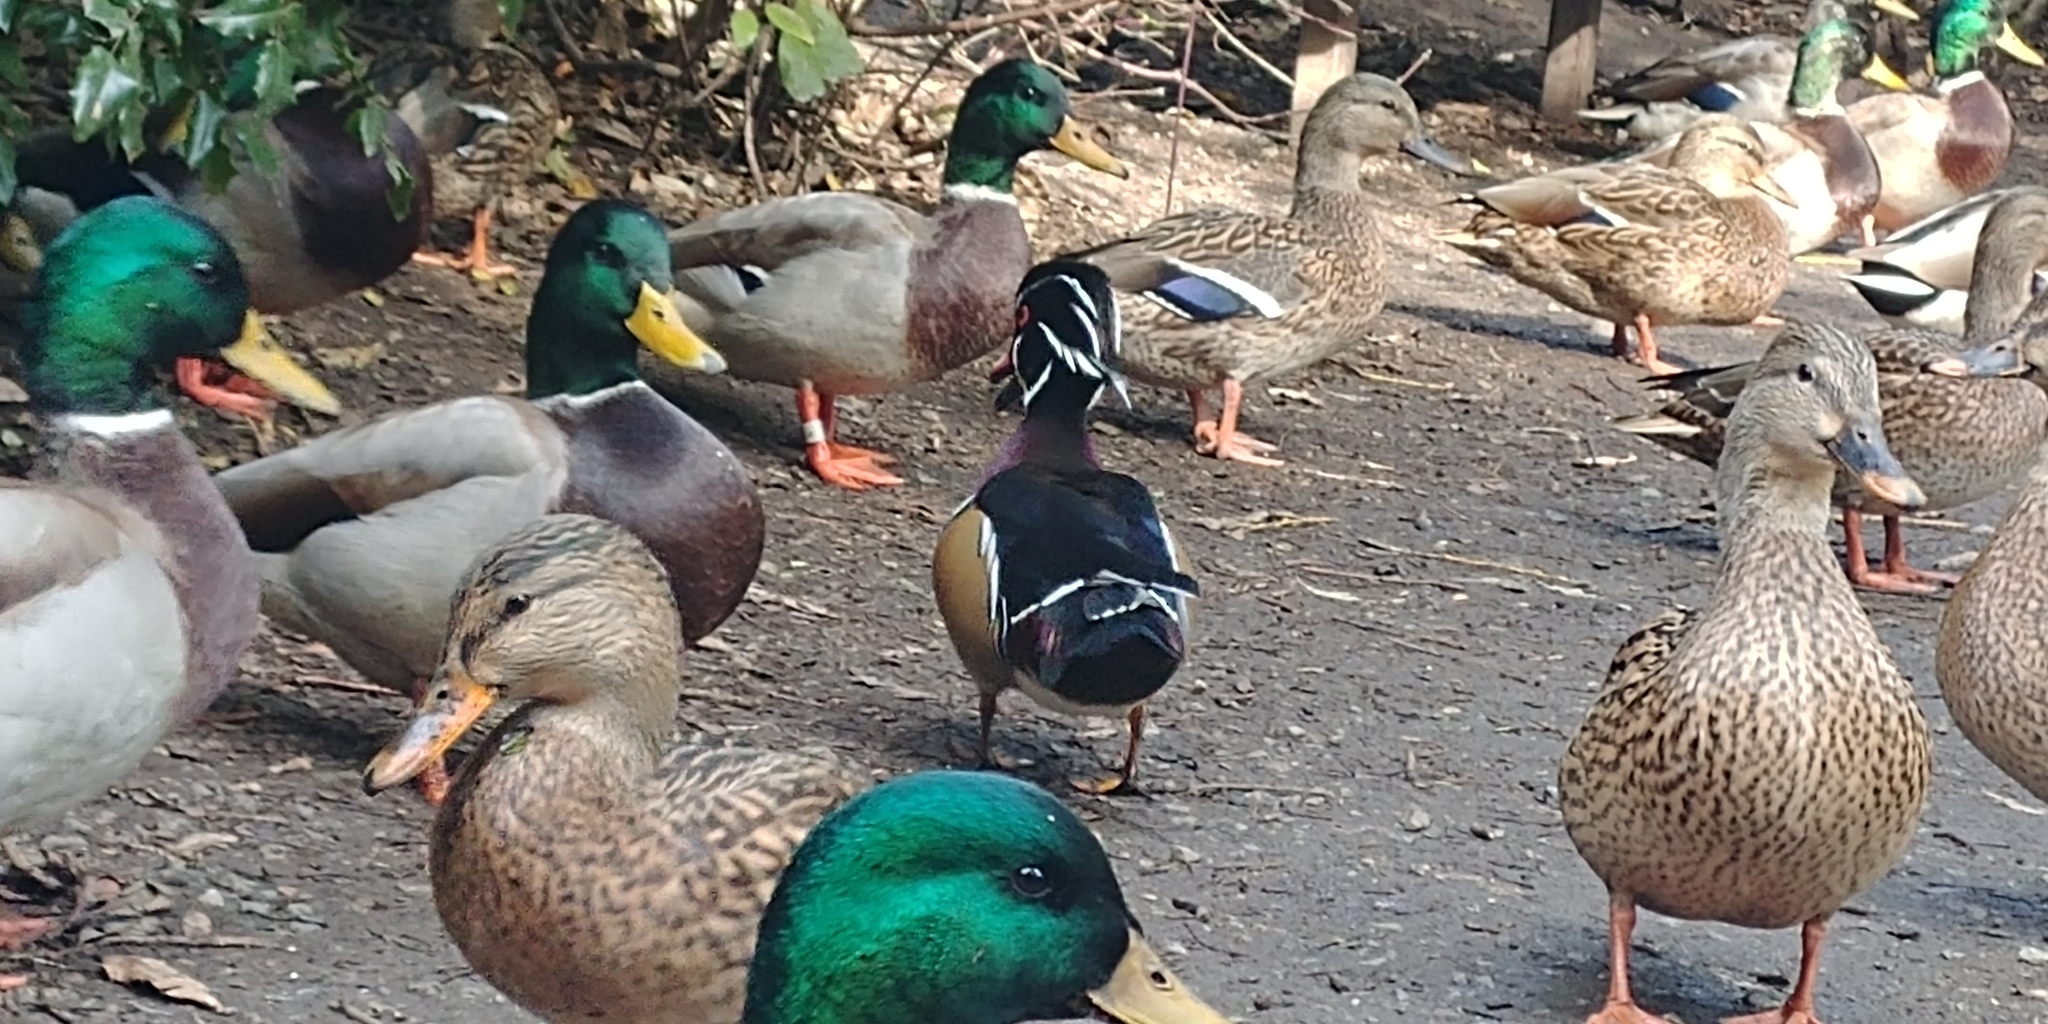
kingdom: Animalia
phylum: Chordata
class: Aves
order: Anseriformes
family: Anatidae
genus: Aix
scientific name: Aix sponsa
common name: Wood duck
